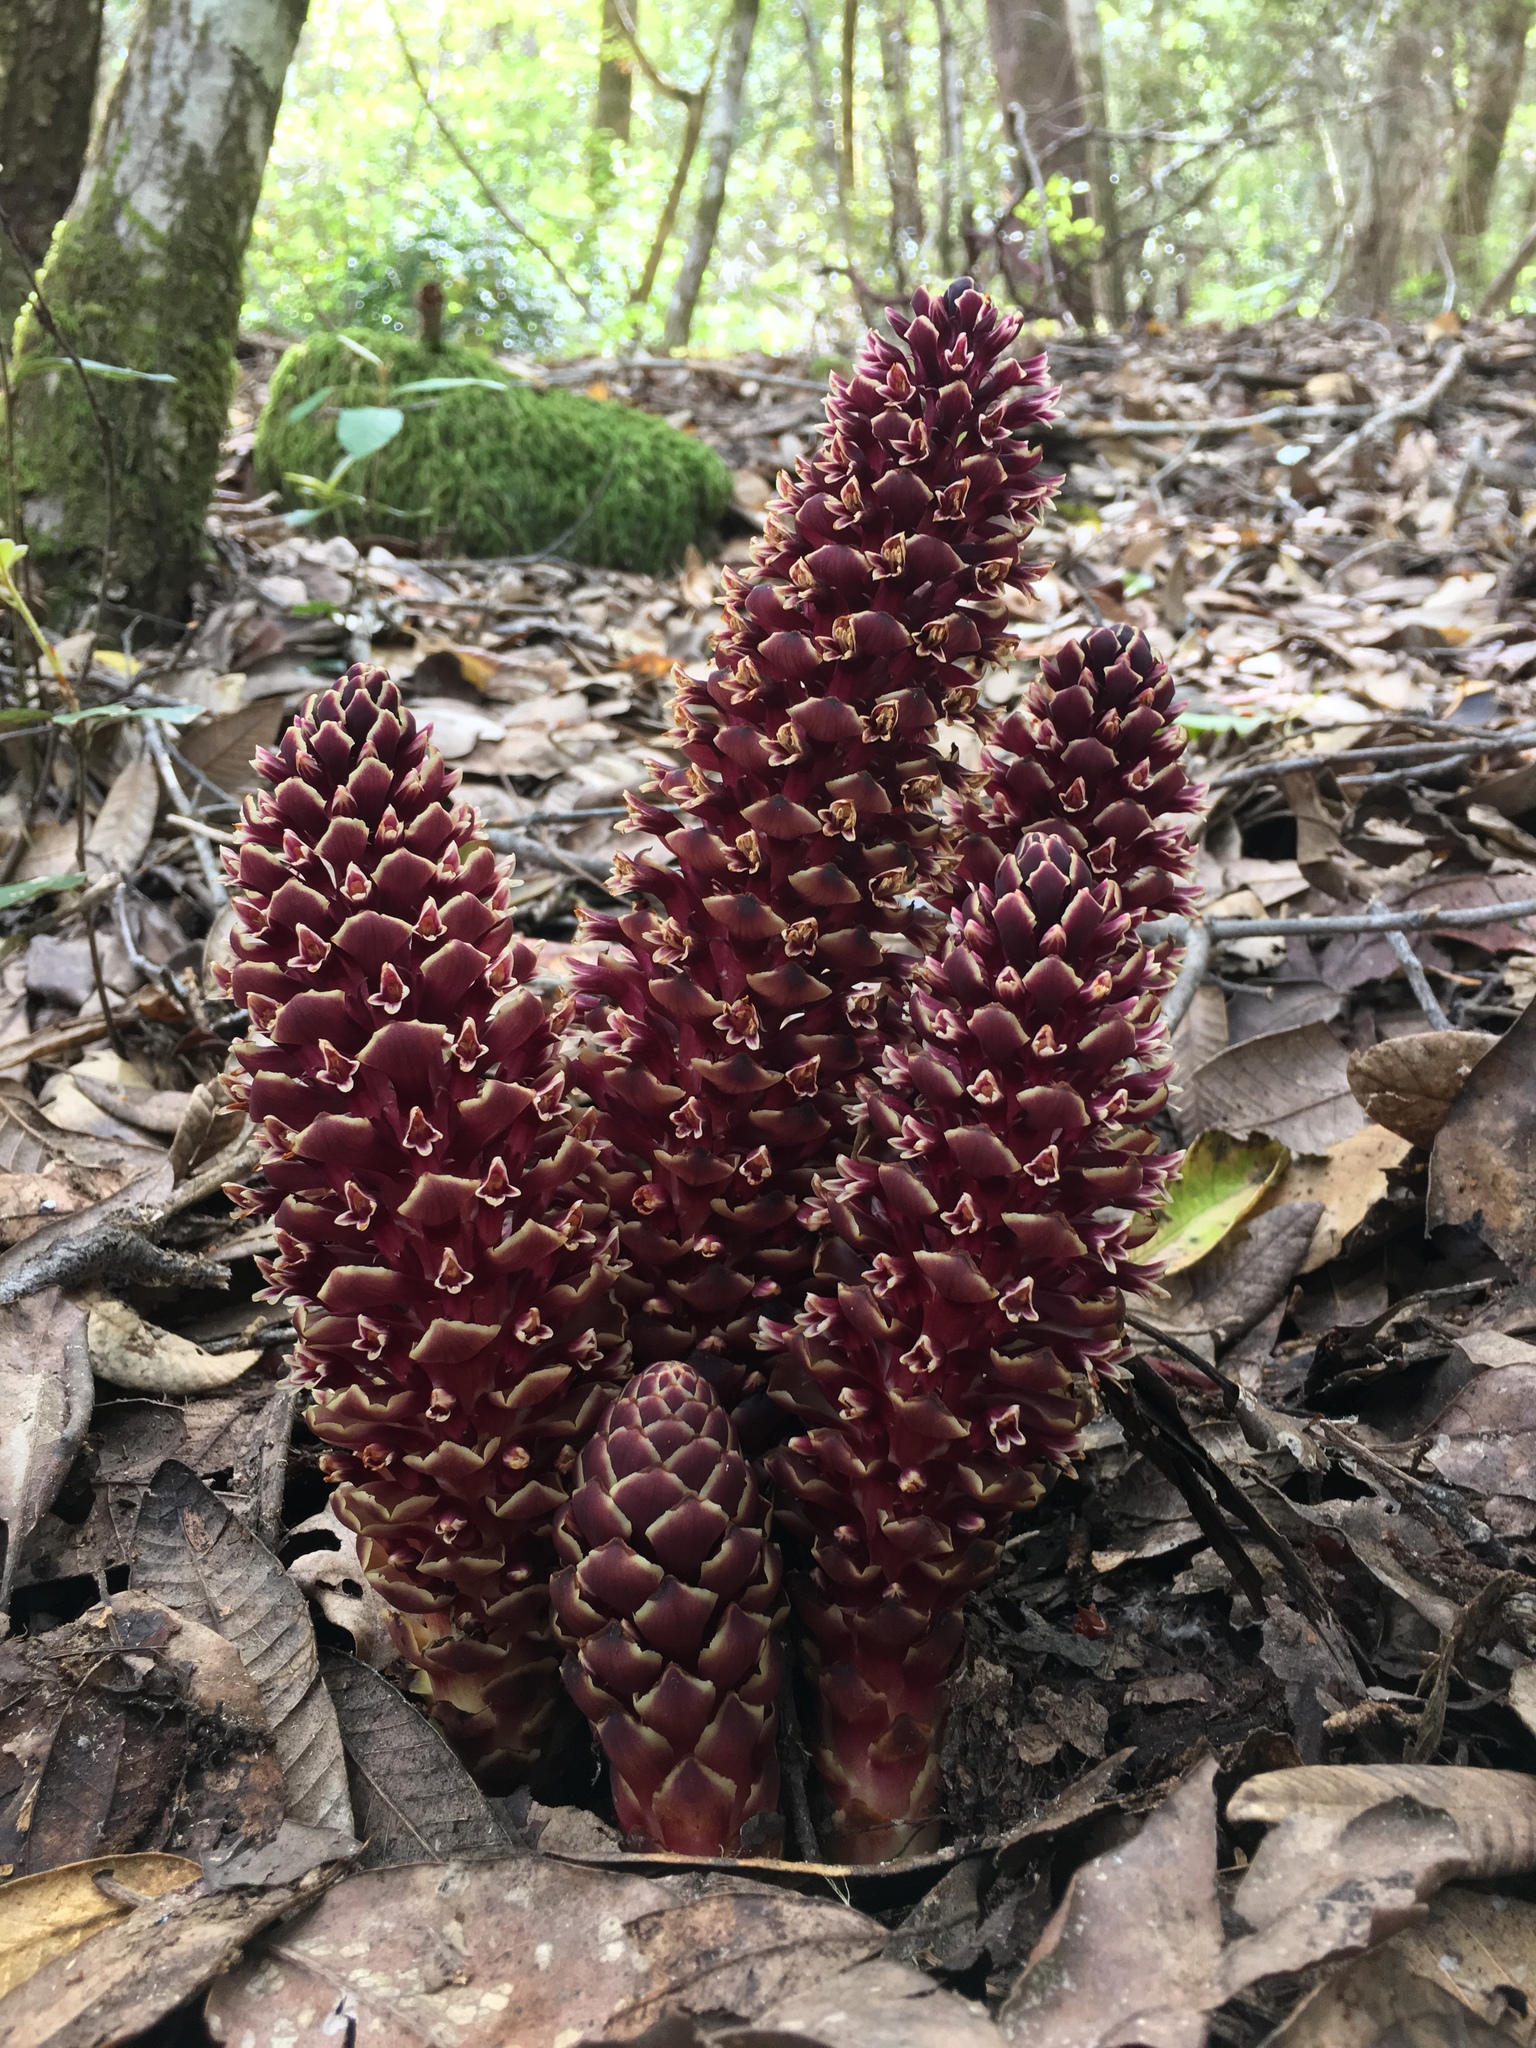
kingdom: Plantae
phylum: Tracheophyta
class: Magnoliopsida
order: Lamiales
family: Orobanchaceae
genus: Kopsiopsis
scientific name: Kopsiopsis strobilacea
